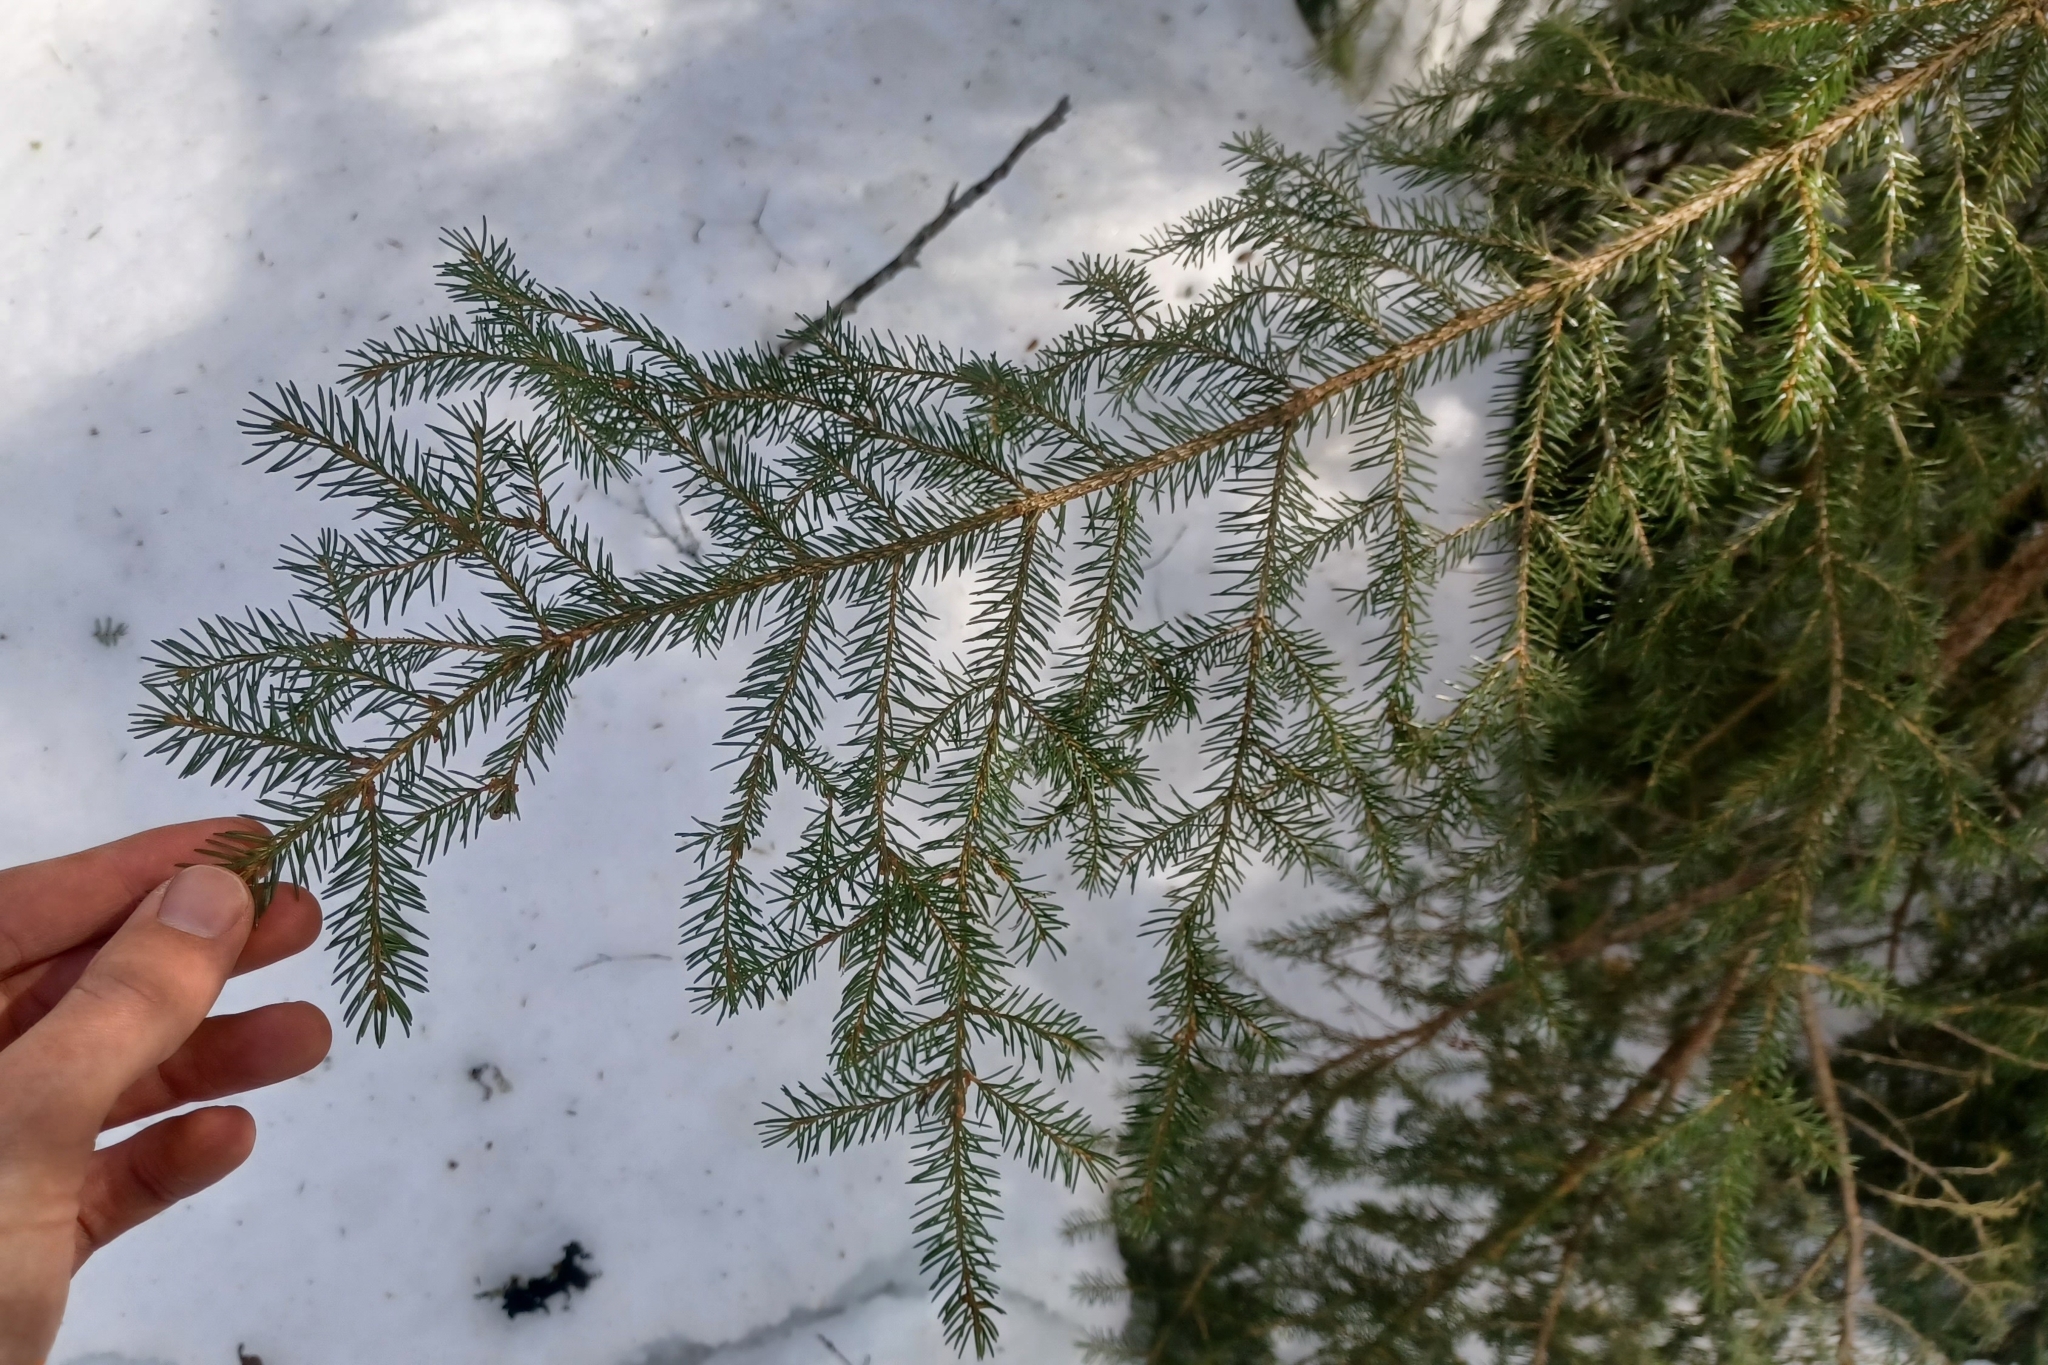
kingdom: Plantae
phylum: Tracheophyta
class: Pinopsida
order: Pinales
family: Pinaceae
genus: Picea
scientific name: Picea rubens
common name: Red spruce
